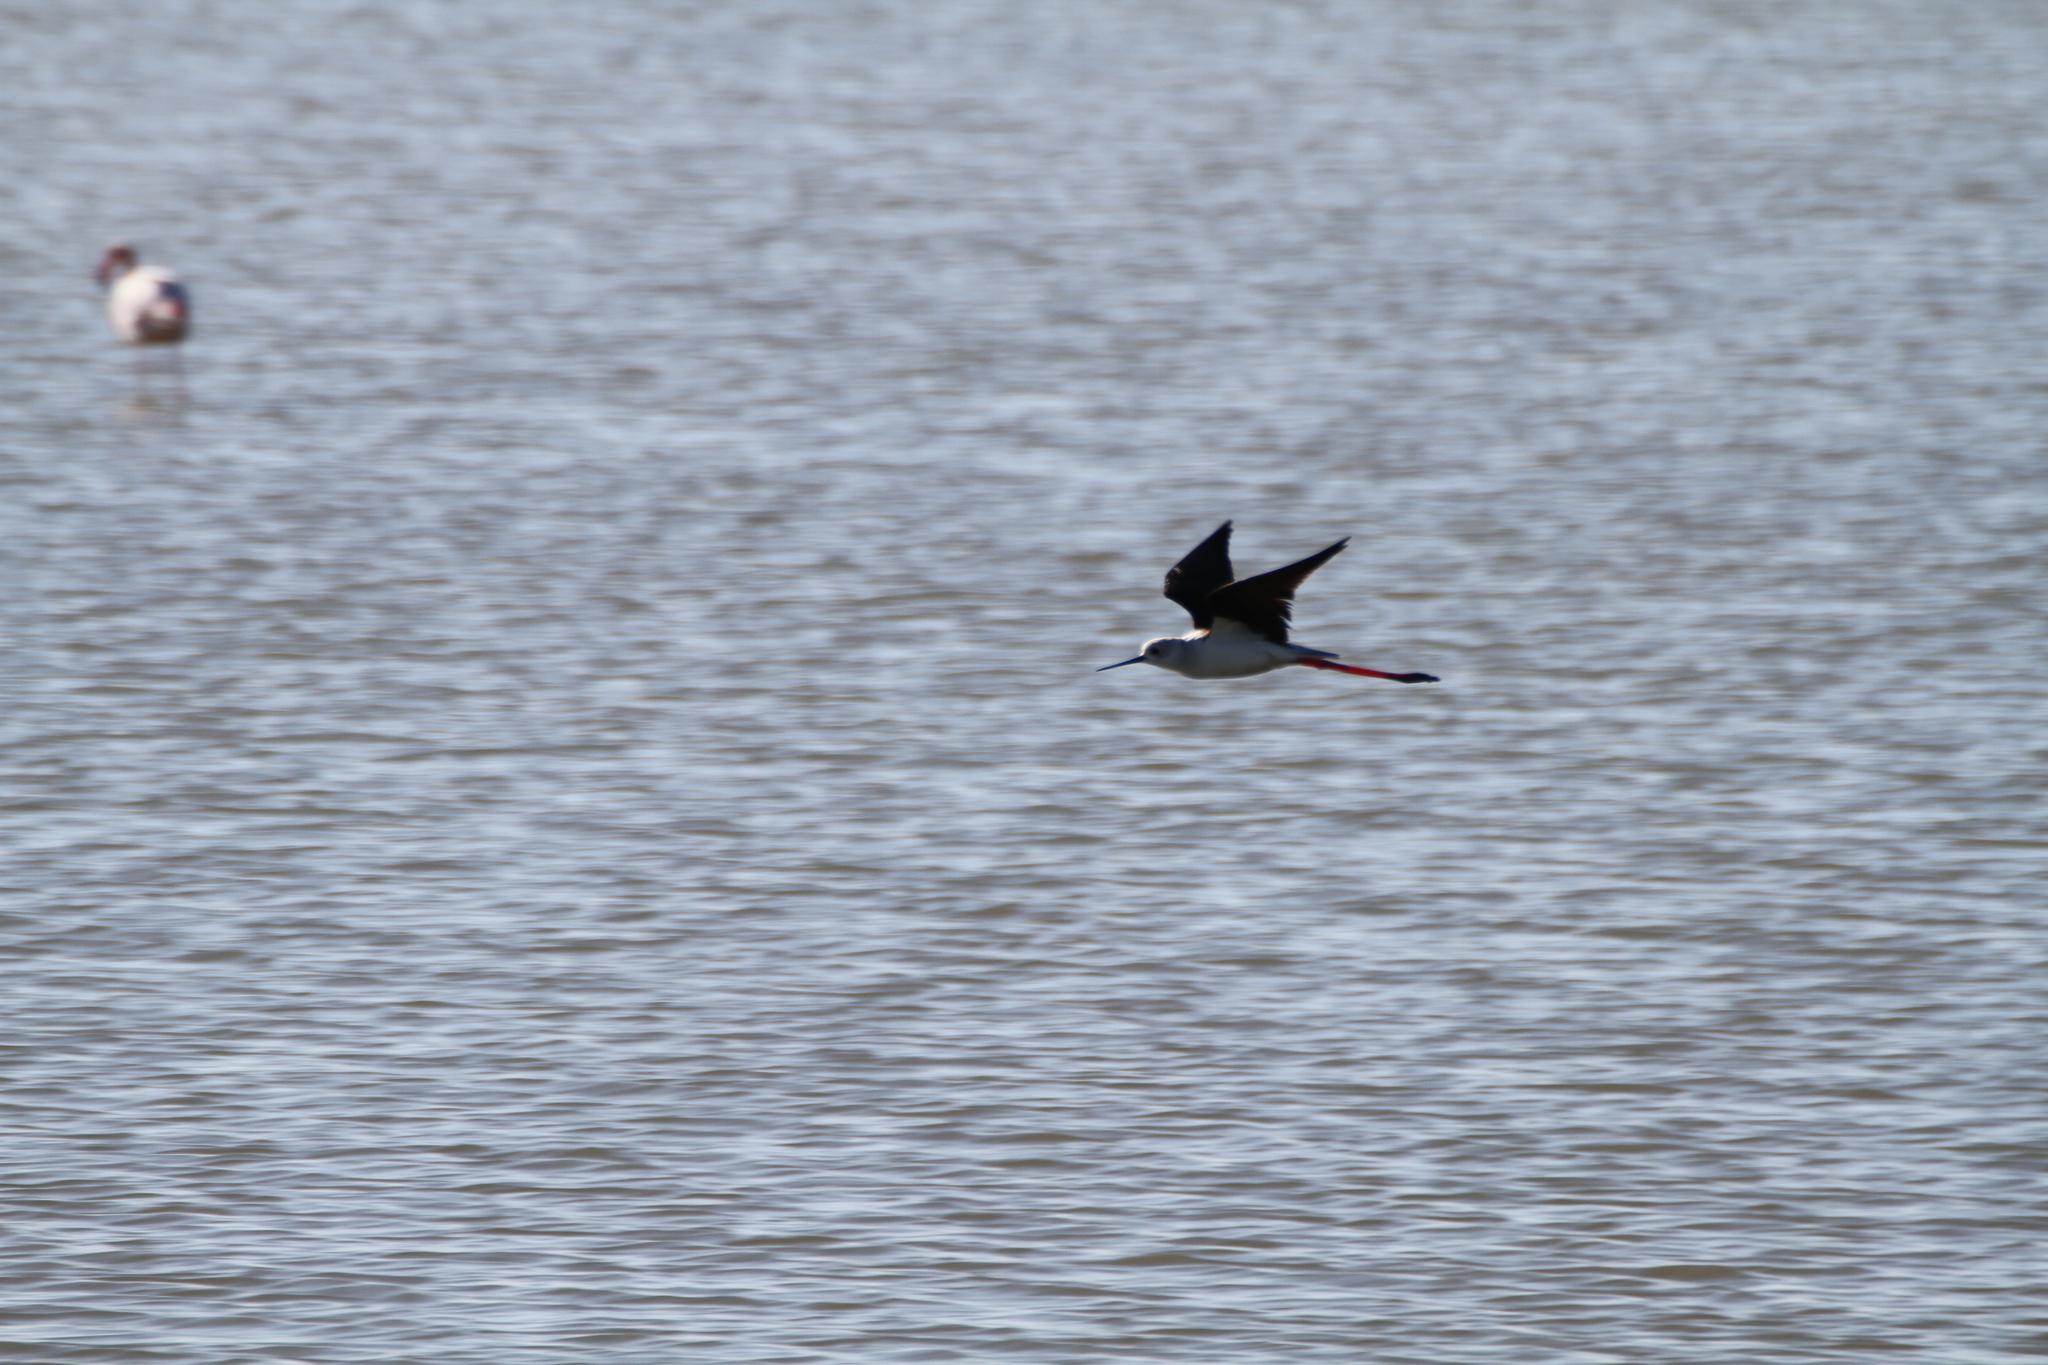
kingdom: Animalia
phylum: Chordata
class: Aves
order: Charadriiformes
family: Recurvirostridae
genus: Himantopus
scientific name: Himantopus himantopus
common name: Black-winged stilt
